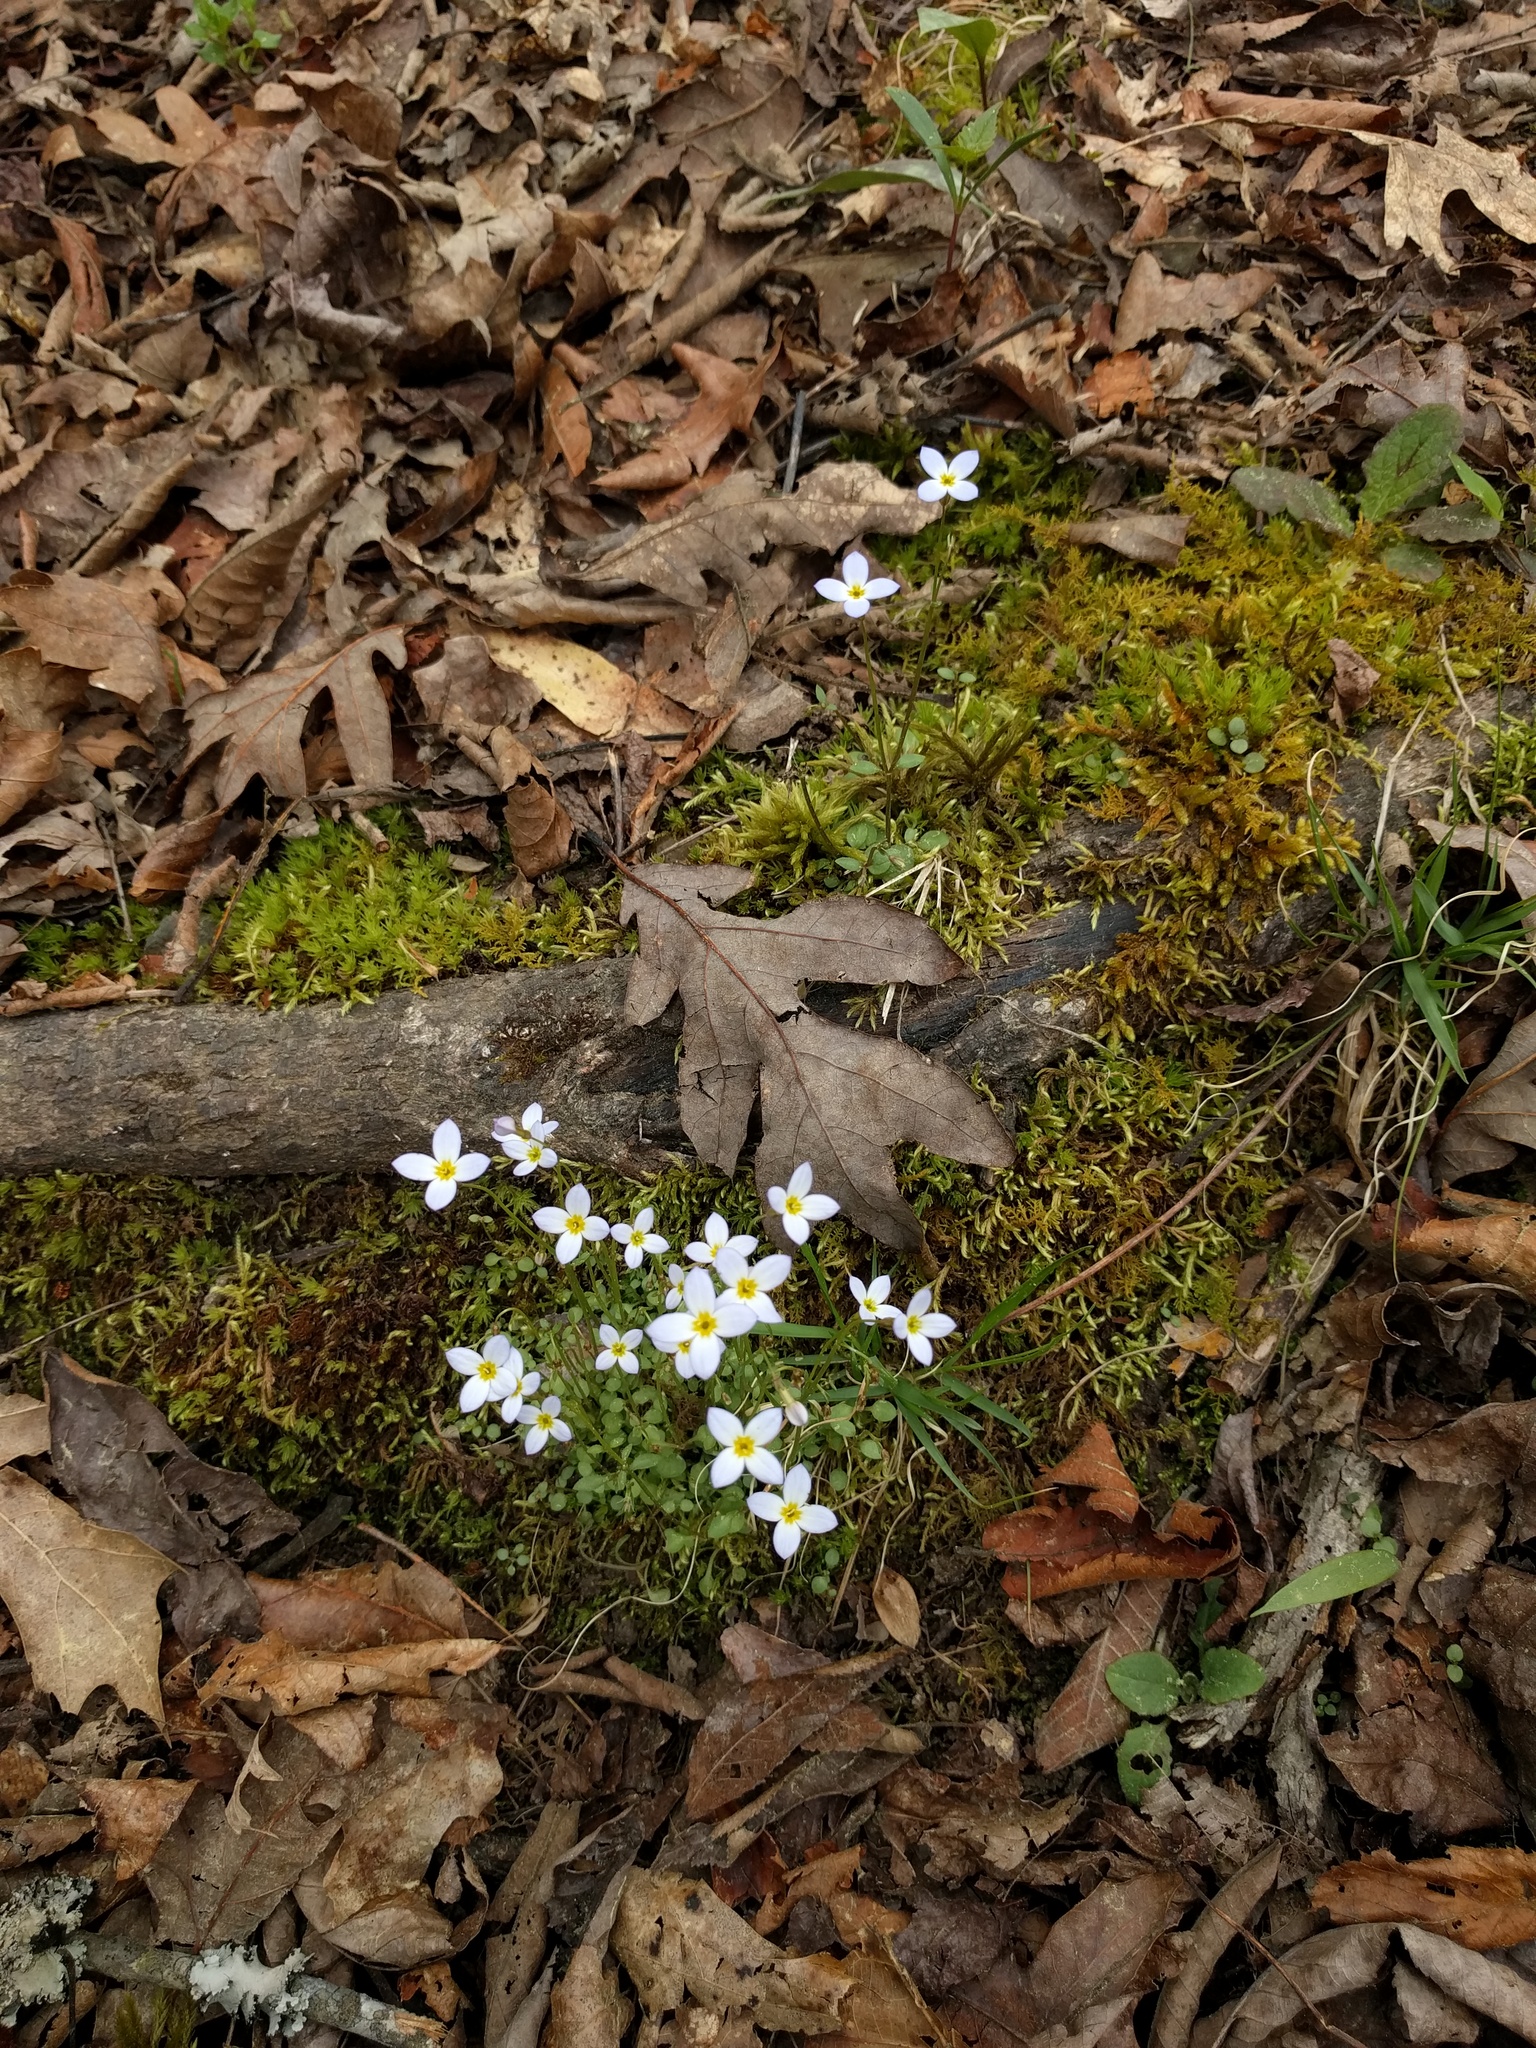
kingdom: Plantae
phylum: Tracheophyta
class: Magnoliopsida
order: Gentianales
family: Rubiaceae
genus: Houstonia
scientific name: Houstonia caerulea
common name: Bluets
